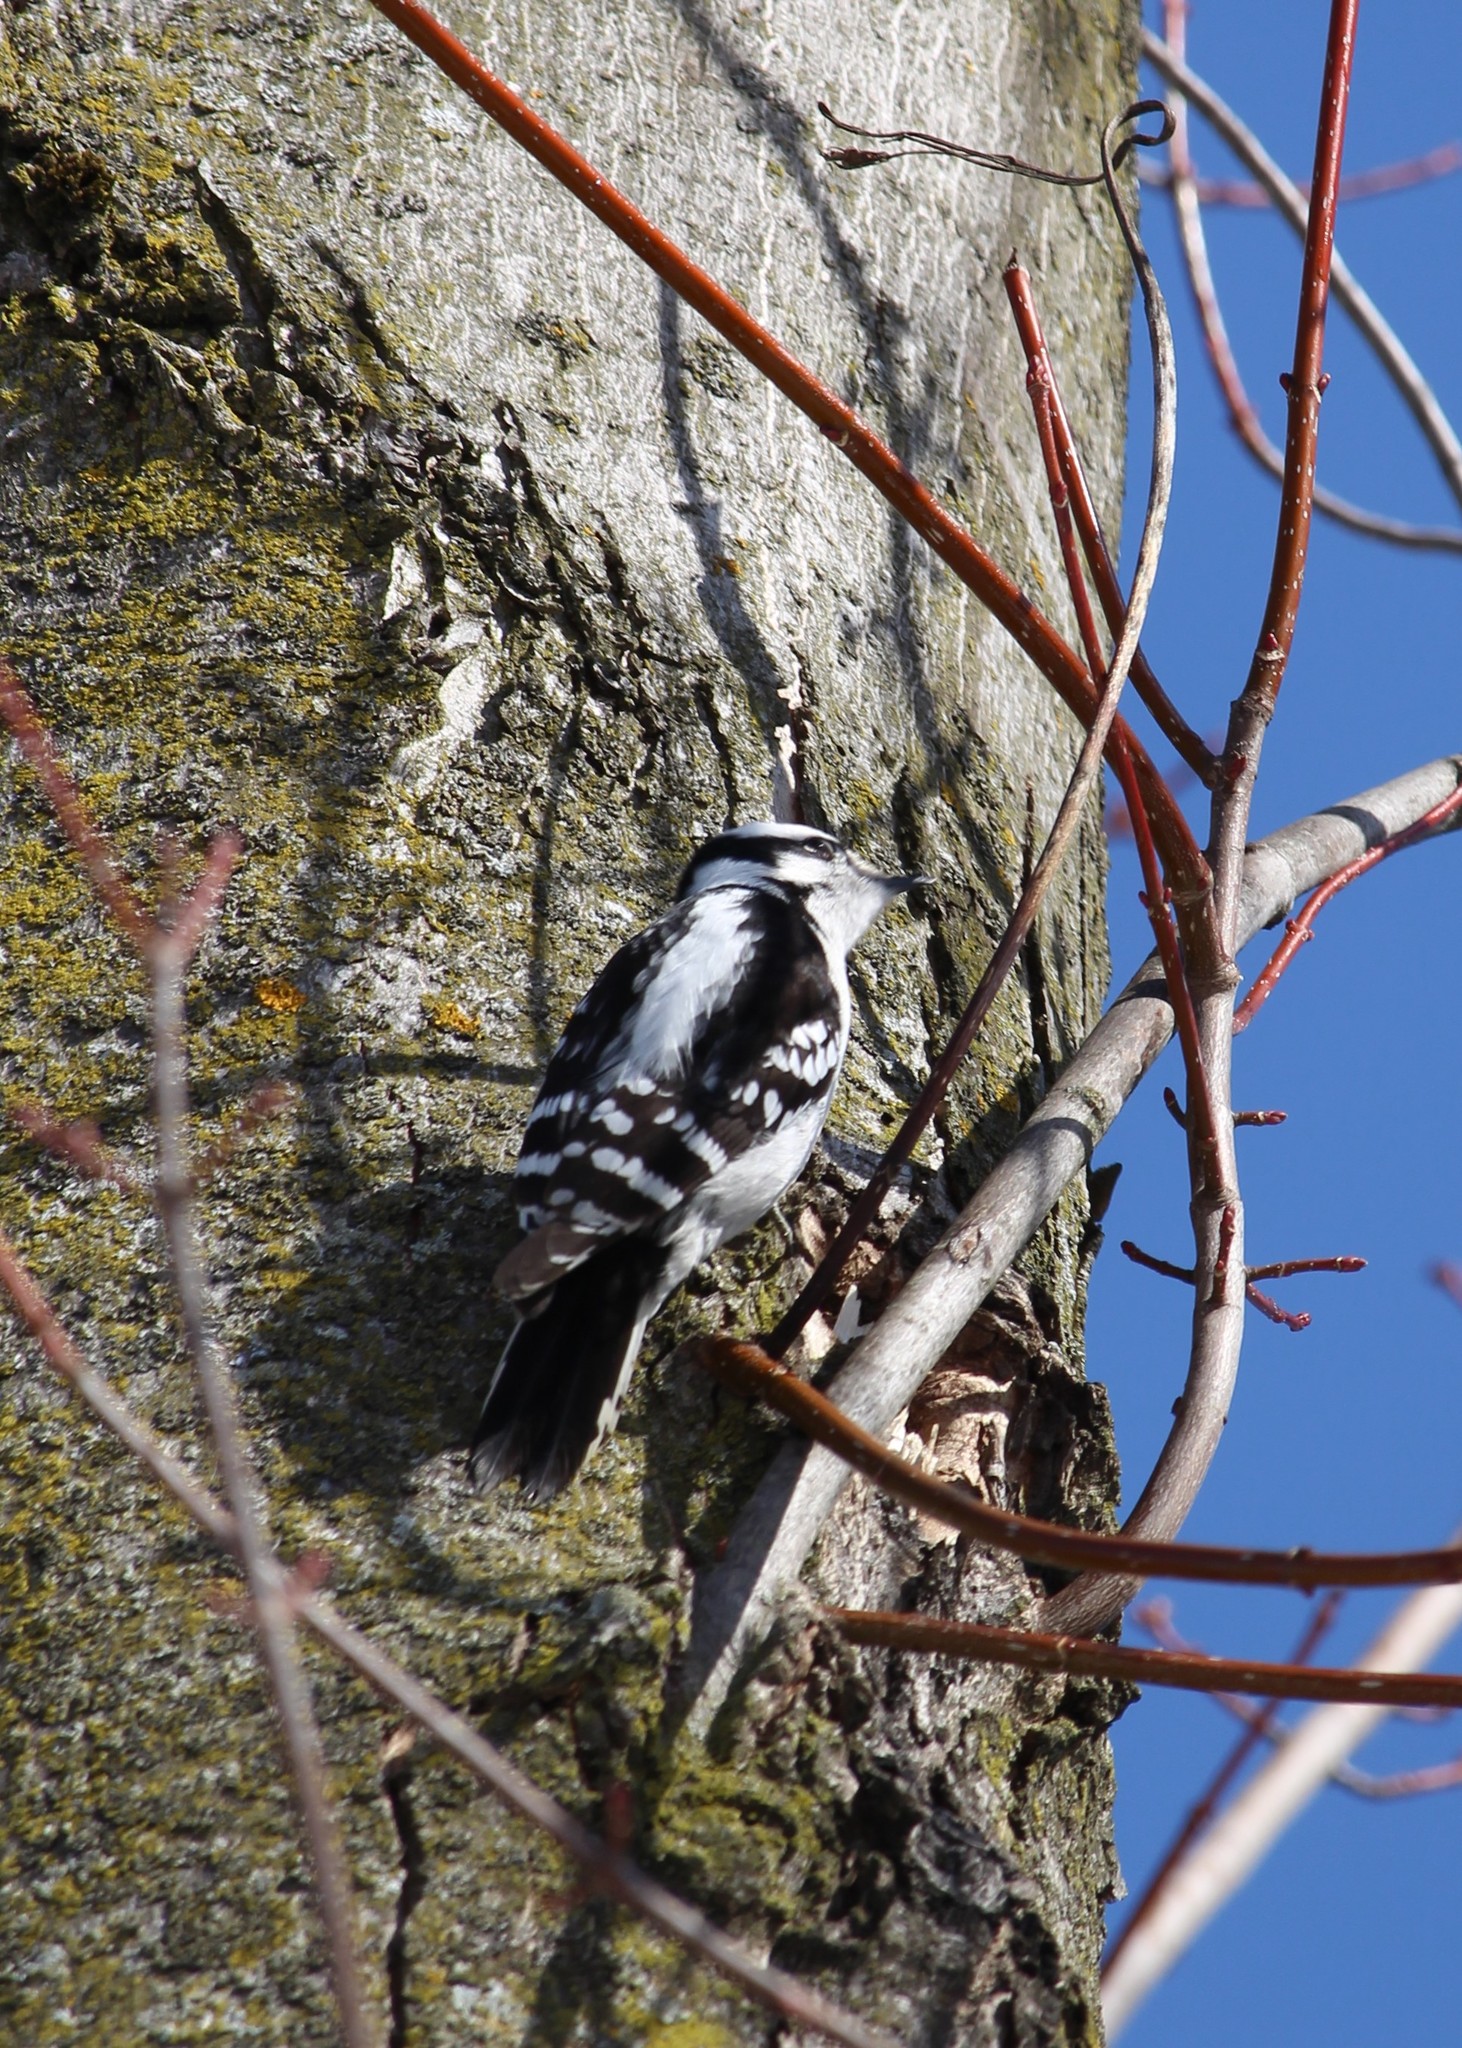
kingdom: Animalia
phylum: Chordata
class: Aves
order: Piciformes
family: Picidae
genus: Dryobates
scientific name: Dryobates pubescens
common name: Downy woodpecker
